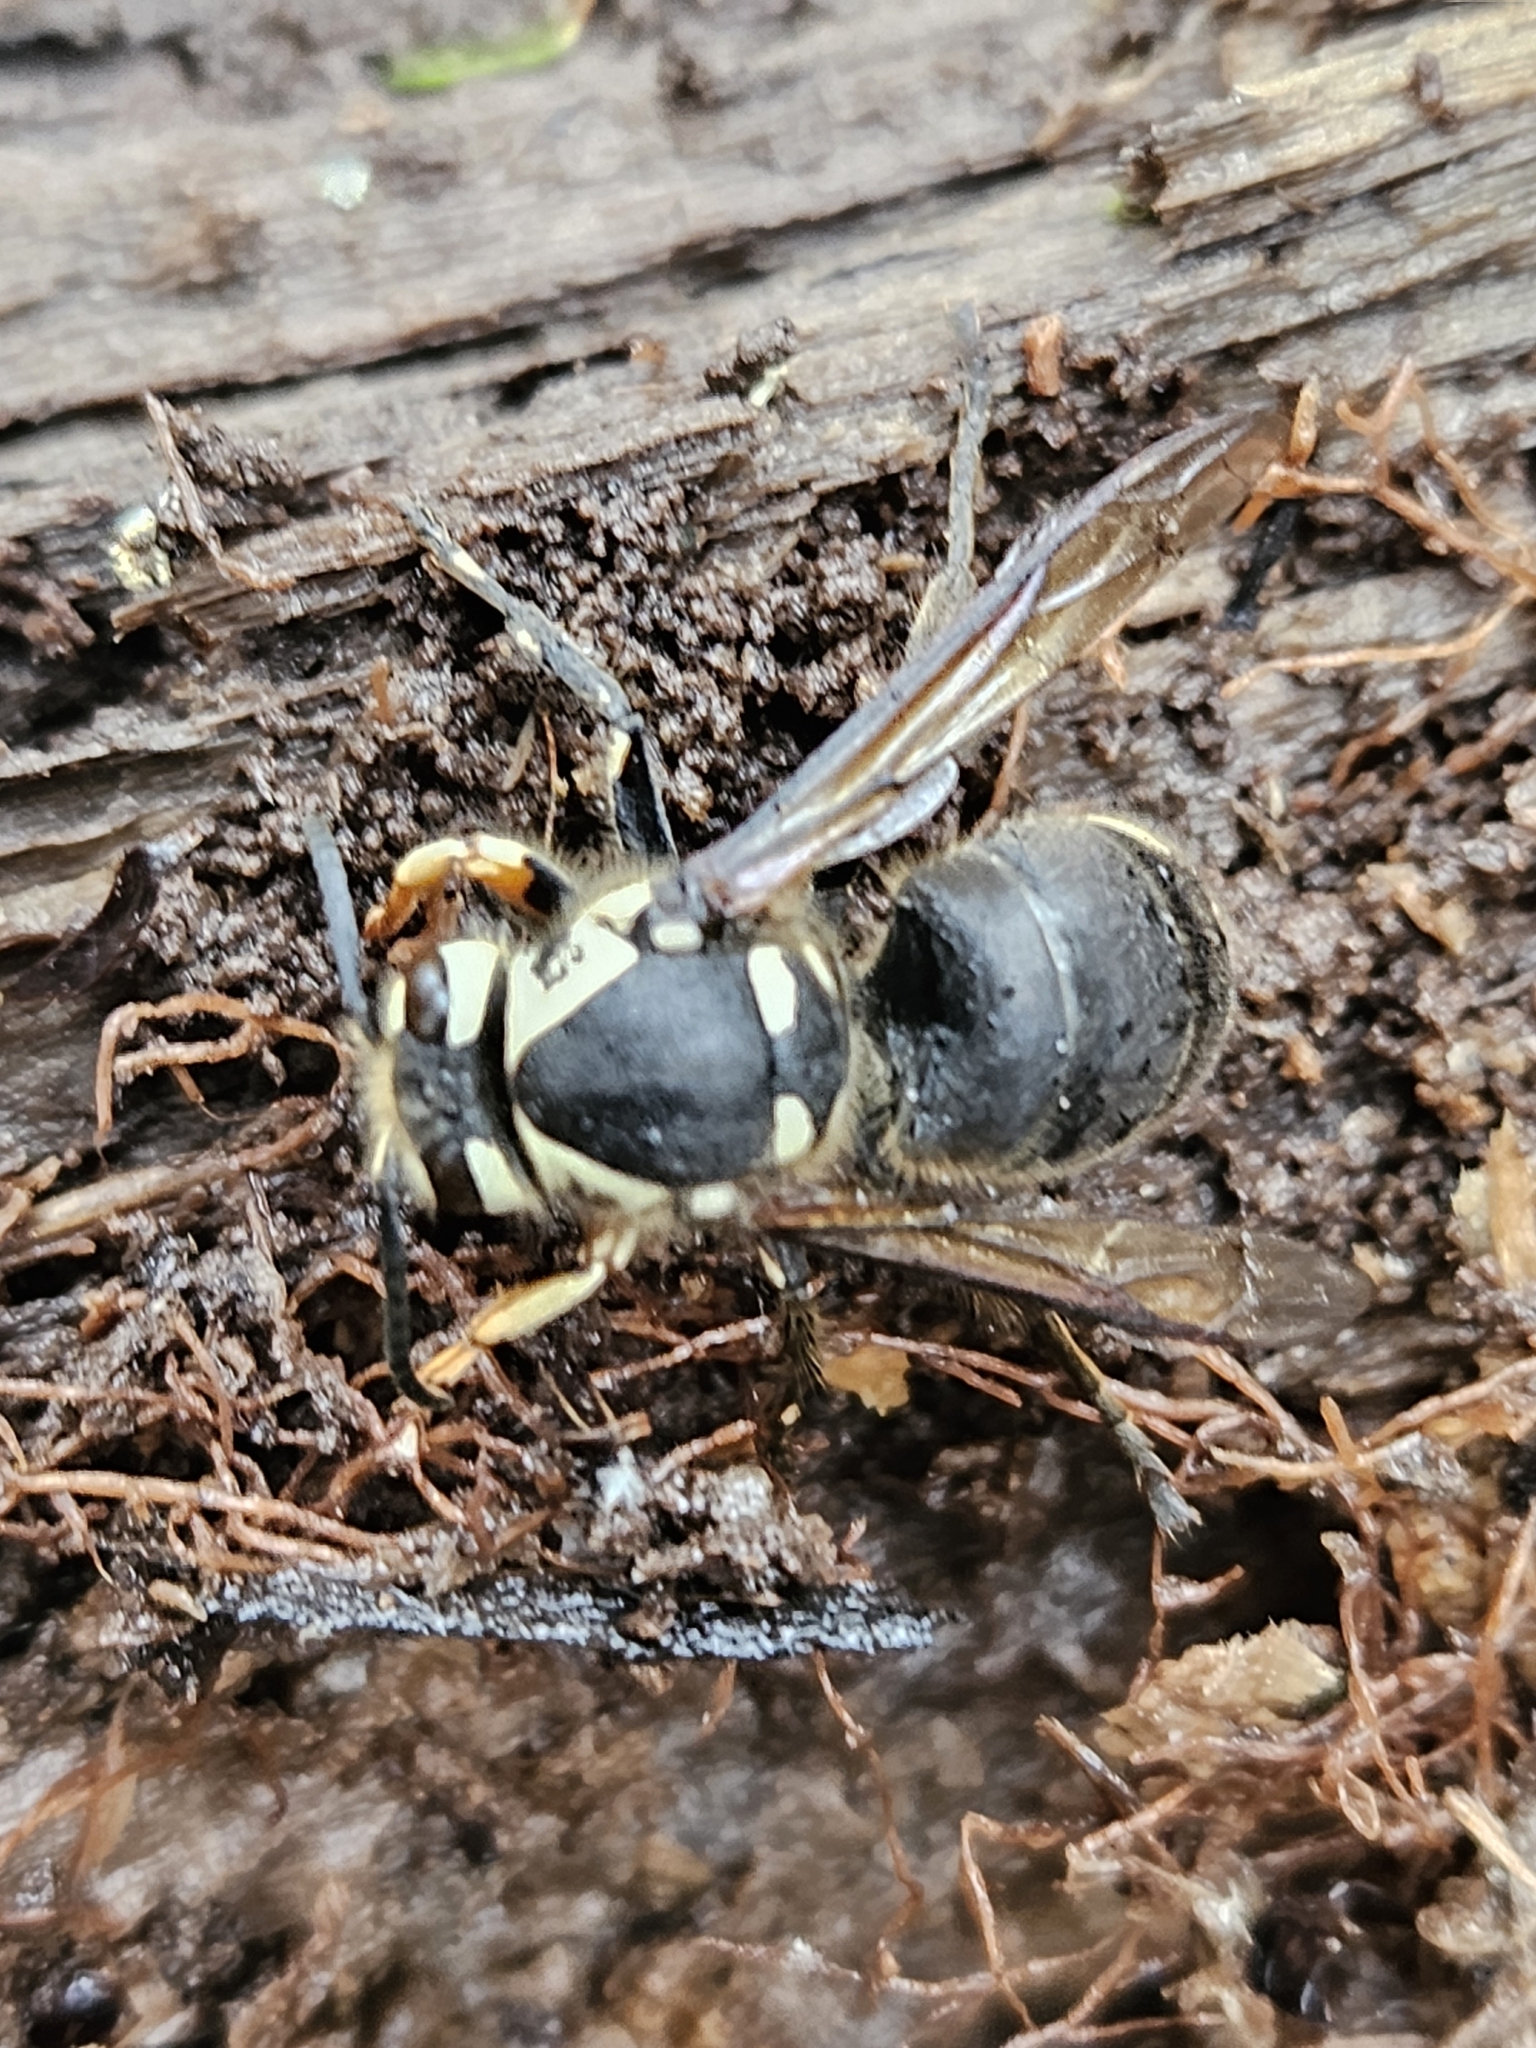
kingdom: Animalia
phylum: Arthropoda
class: Insecta
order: Hymenoptera
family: Vespidae
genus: Dolichovespula
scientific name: Dolichovespula maculata
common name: Bald-faced hornet
